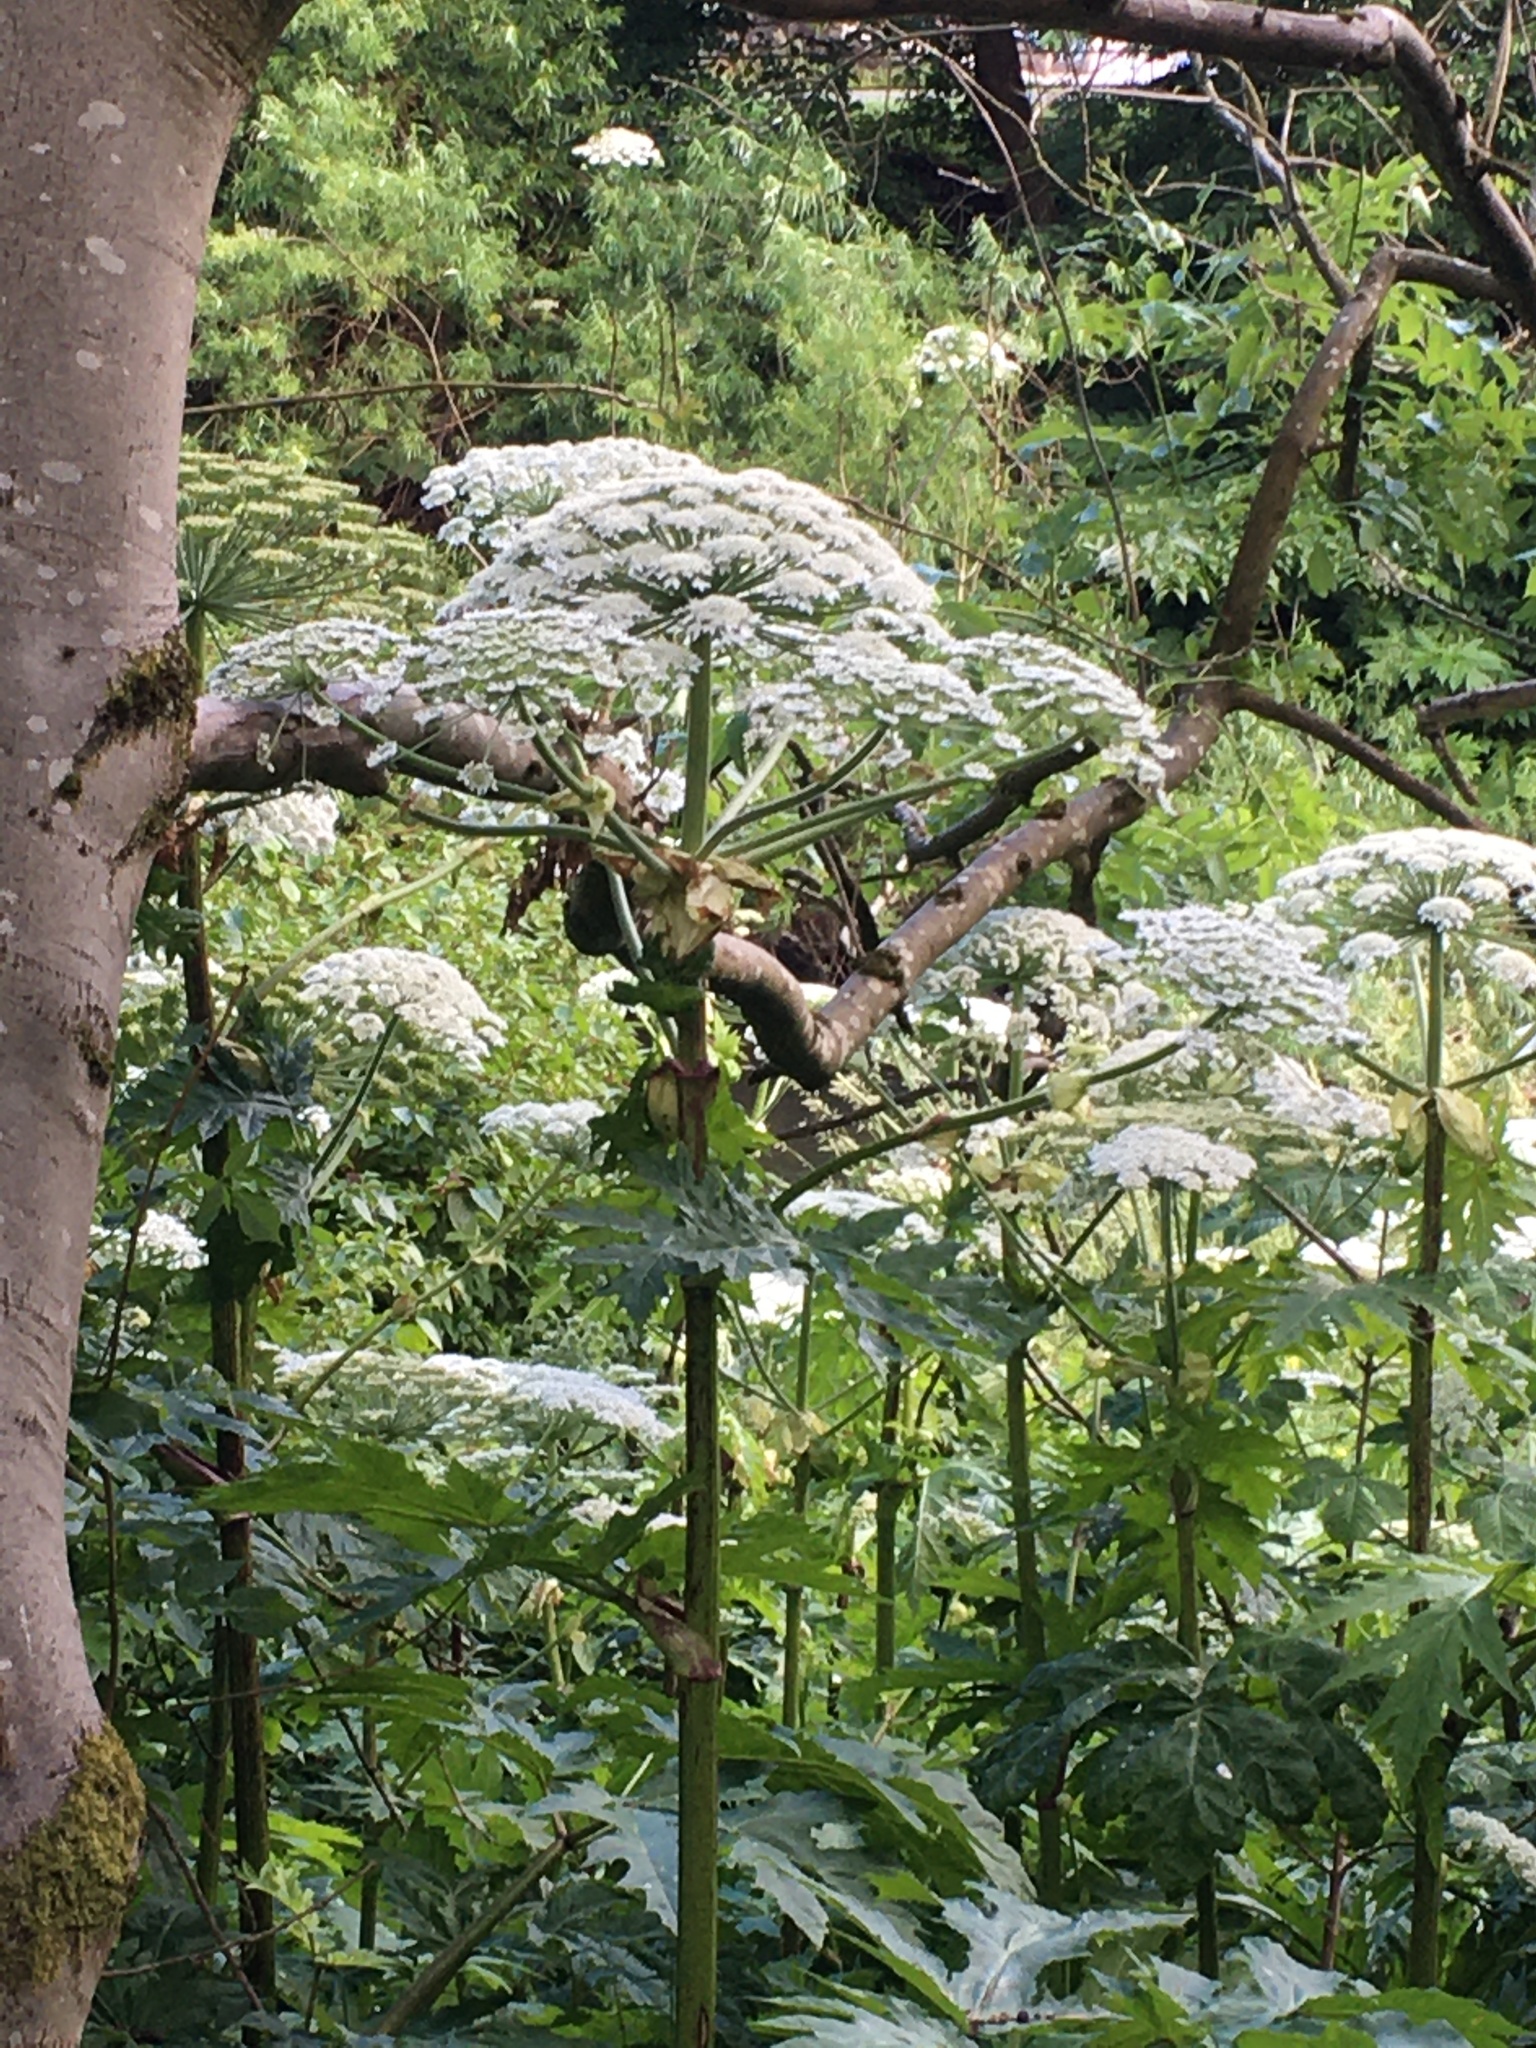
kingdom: Plantae
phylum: Tracheophyta
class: Magnoliopsida
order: Apiales
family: Apiaceae
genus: Heracleum
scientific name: Heracleum mantegazzianum
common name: Giant hogweed
